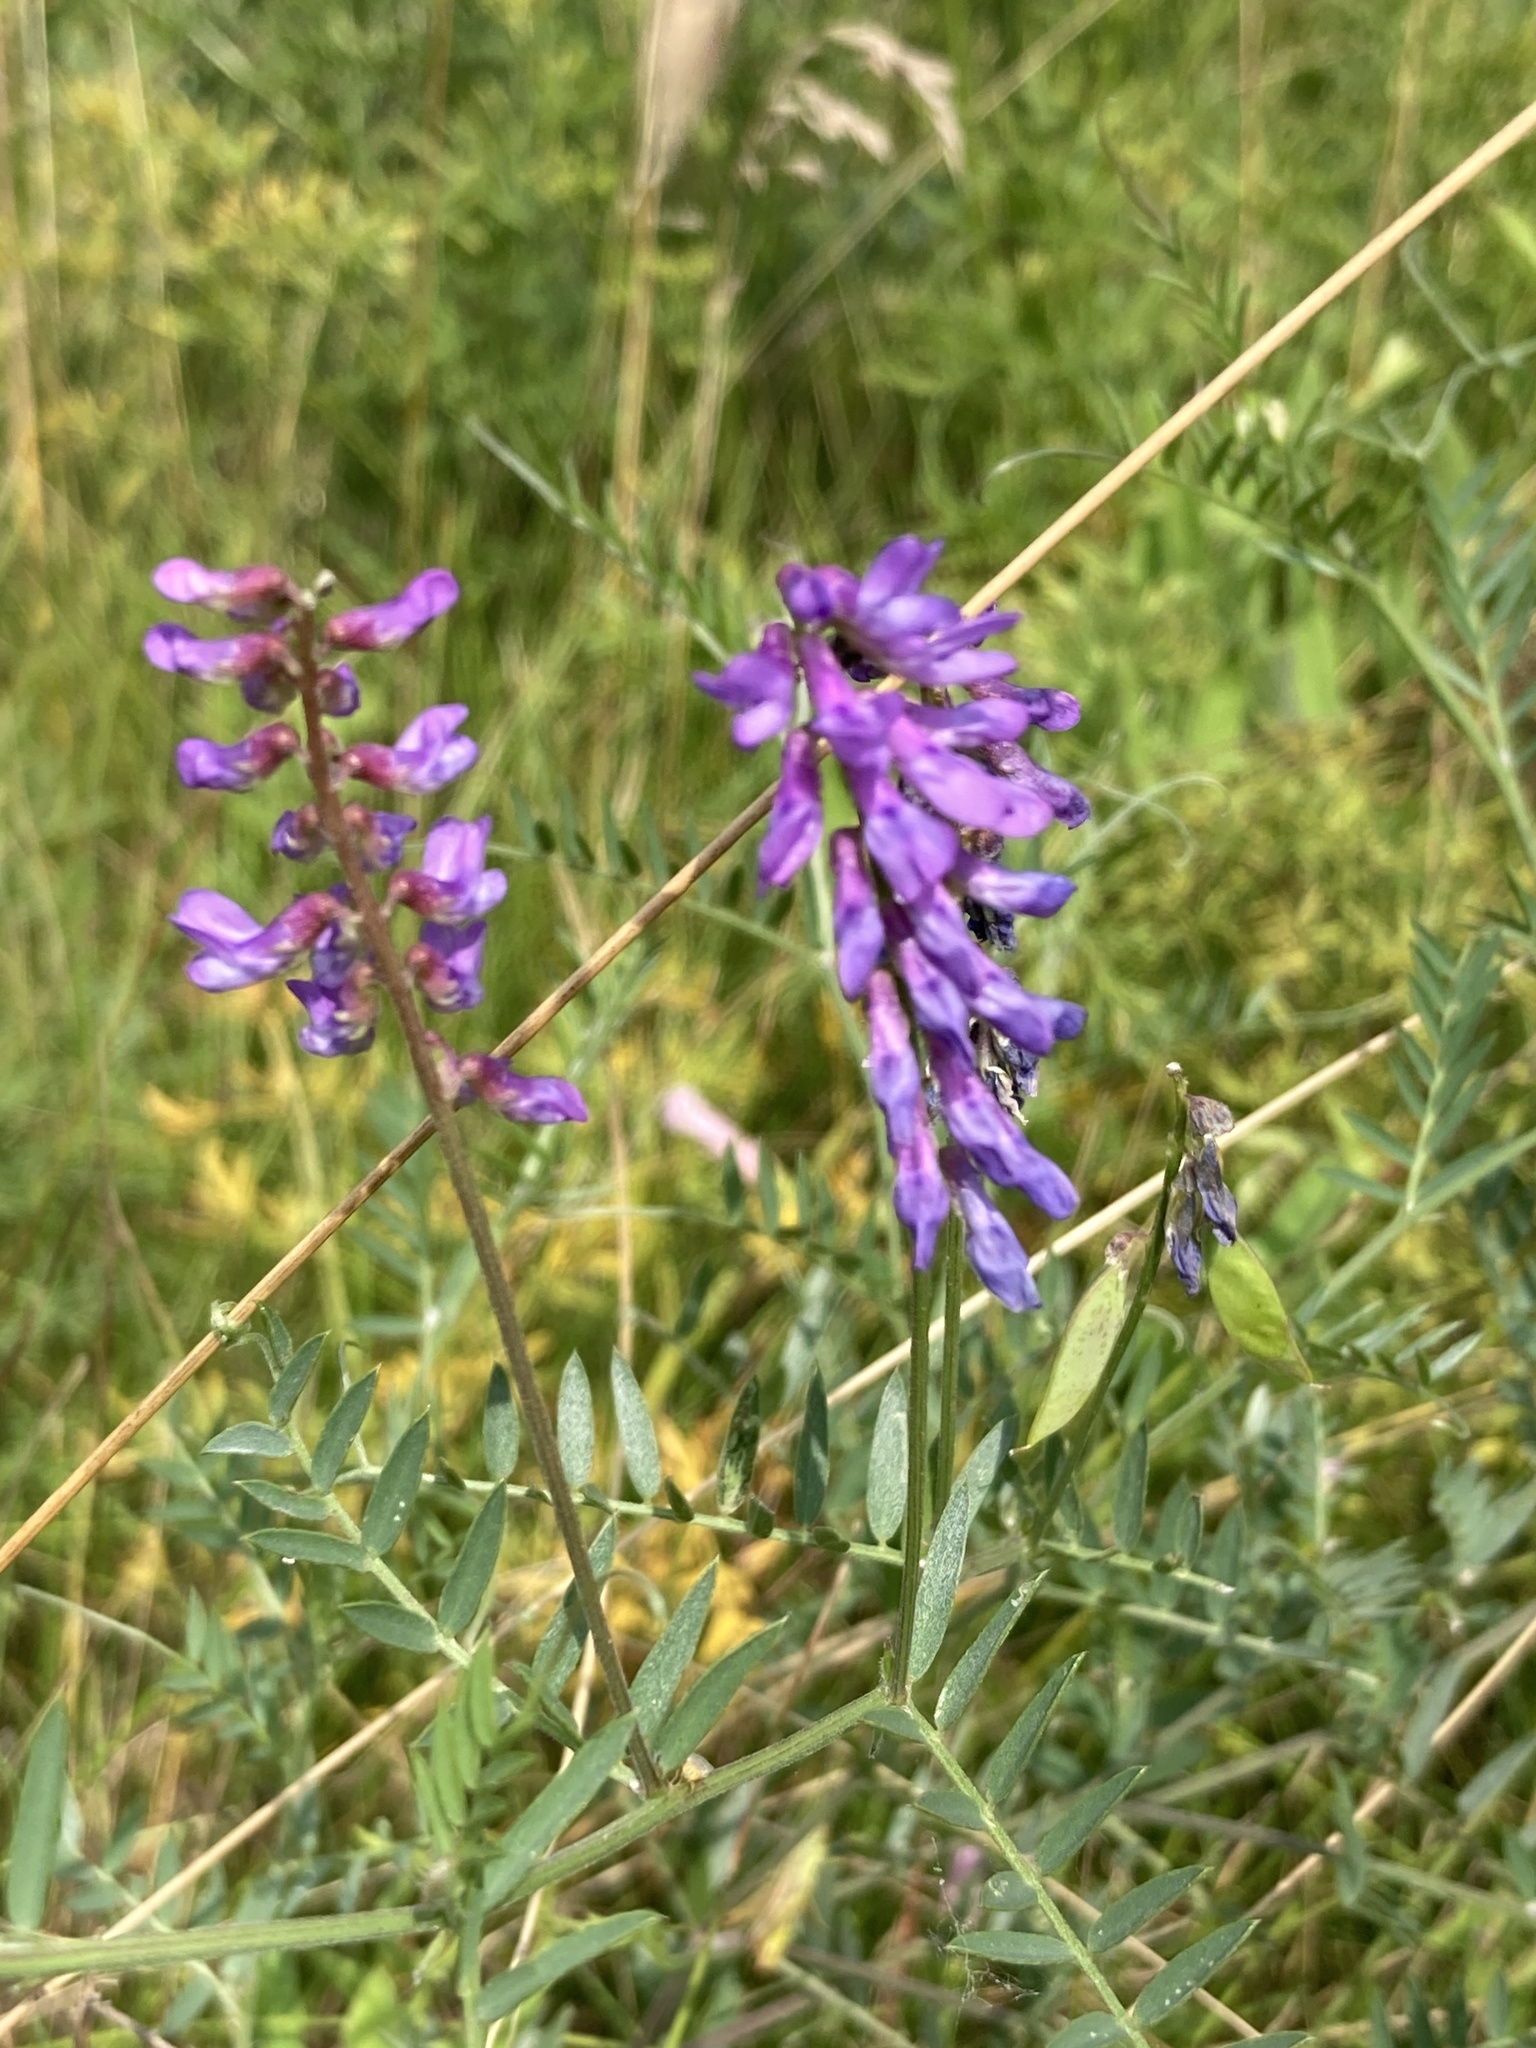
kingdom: Plantae
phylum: Tracheophyta
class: Magnoliopsida
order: Fabales
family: Fabaceae
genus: Vicia
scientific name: Vicia cracca
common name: Bird vetch
